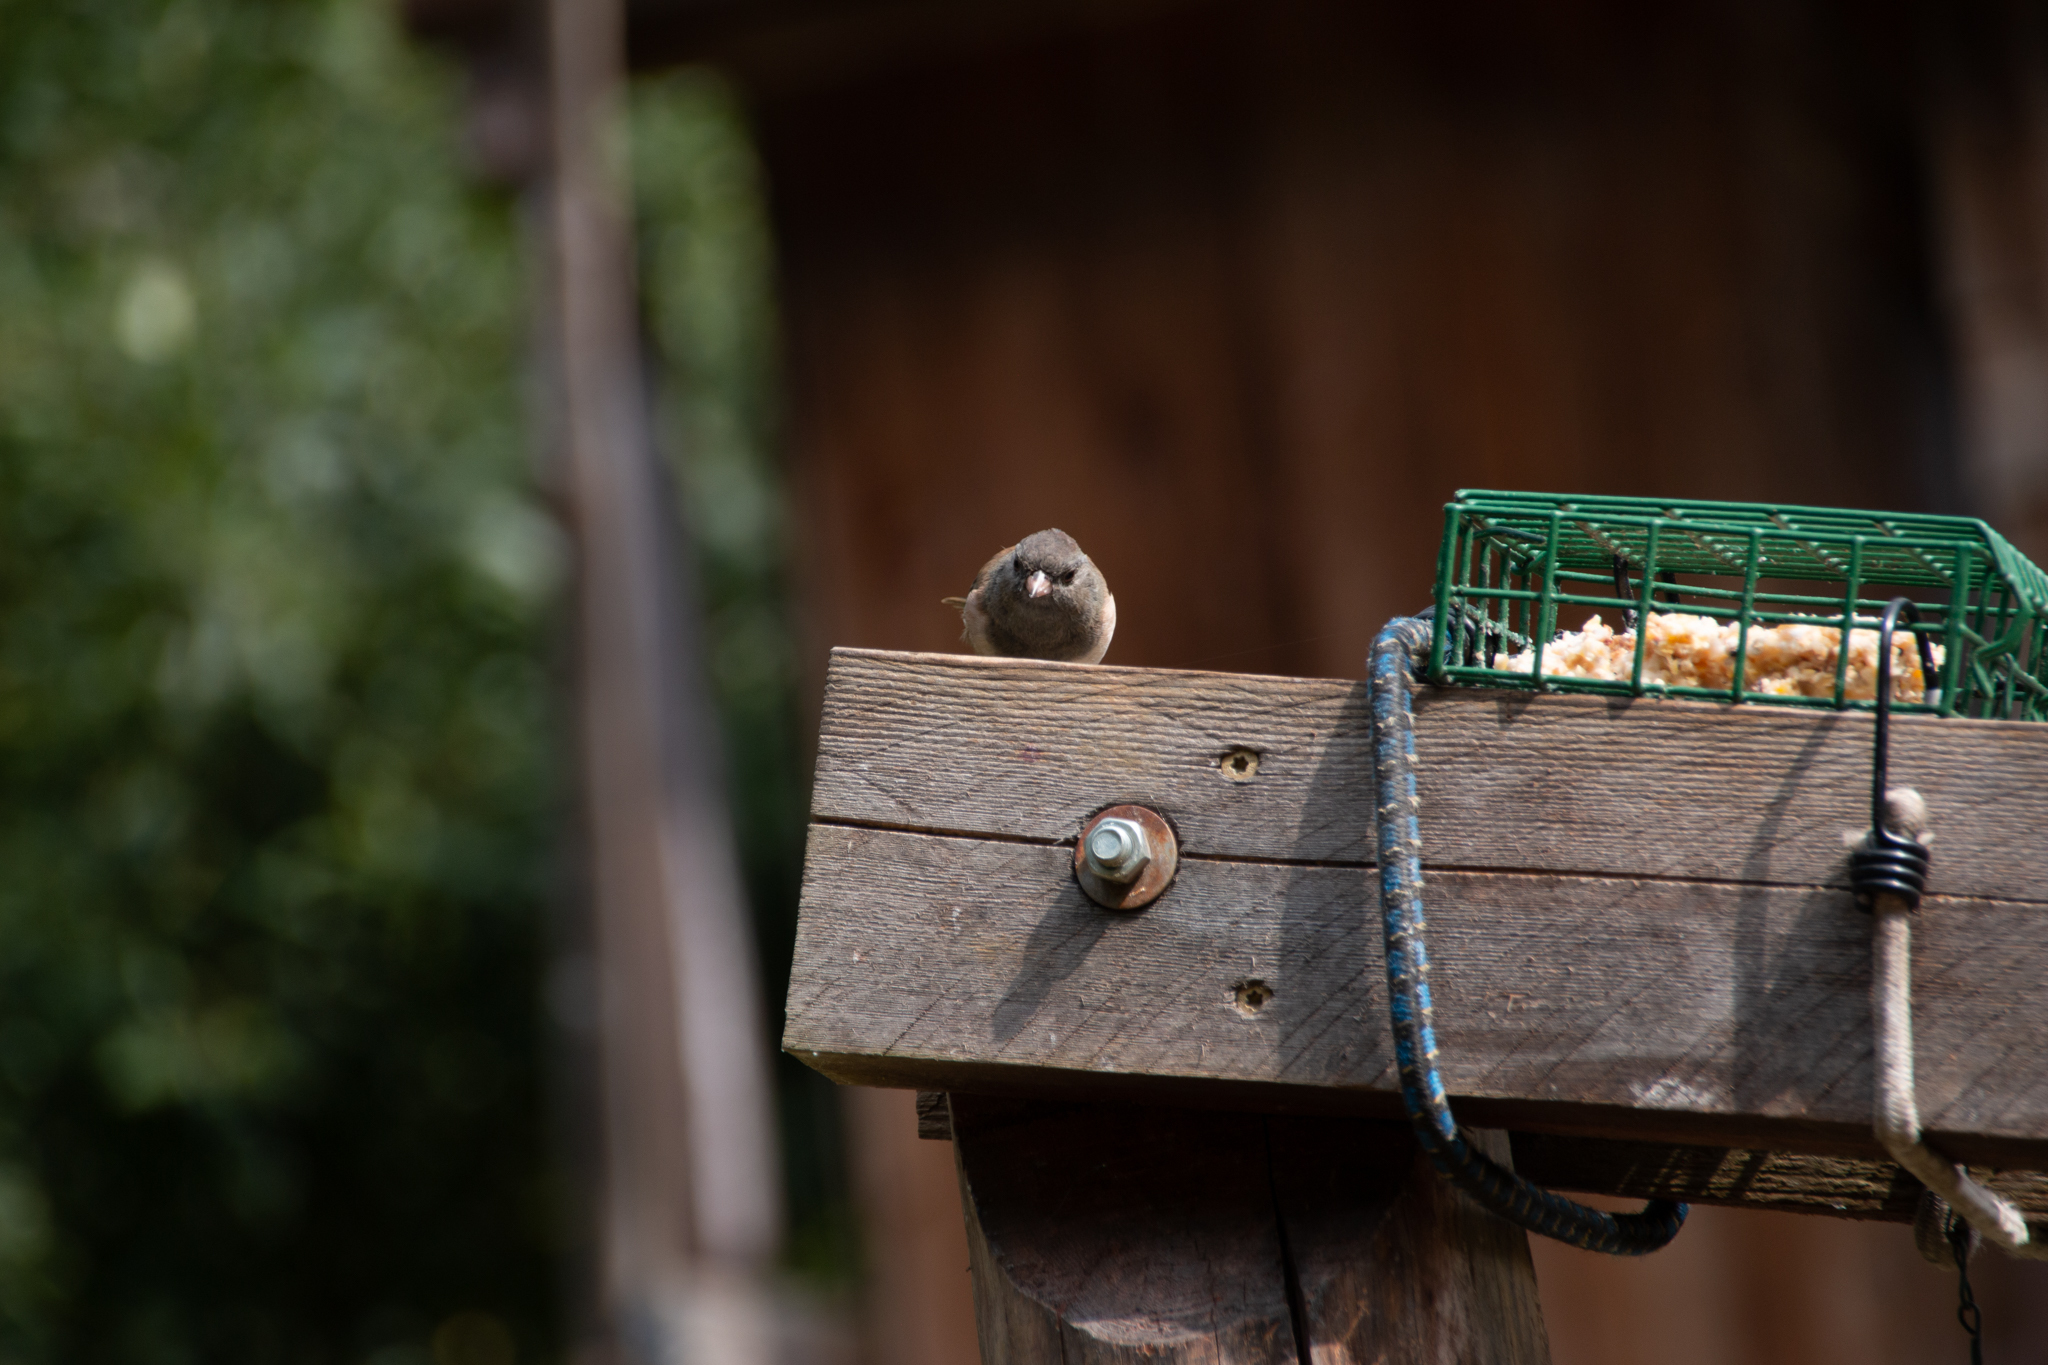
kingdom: Animalia
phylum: Chordata
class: Aves
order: Passeriformes
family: Passerellidae
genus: Junco
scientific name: Junco hyemalis
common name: Dark-eyed junco
